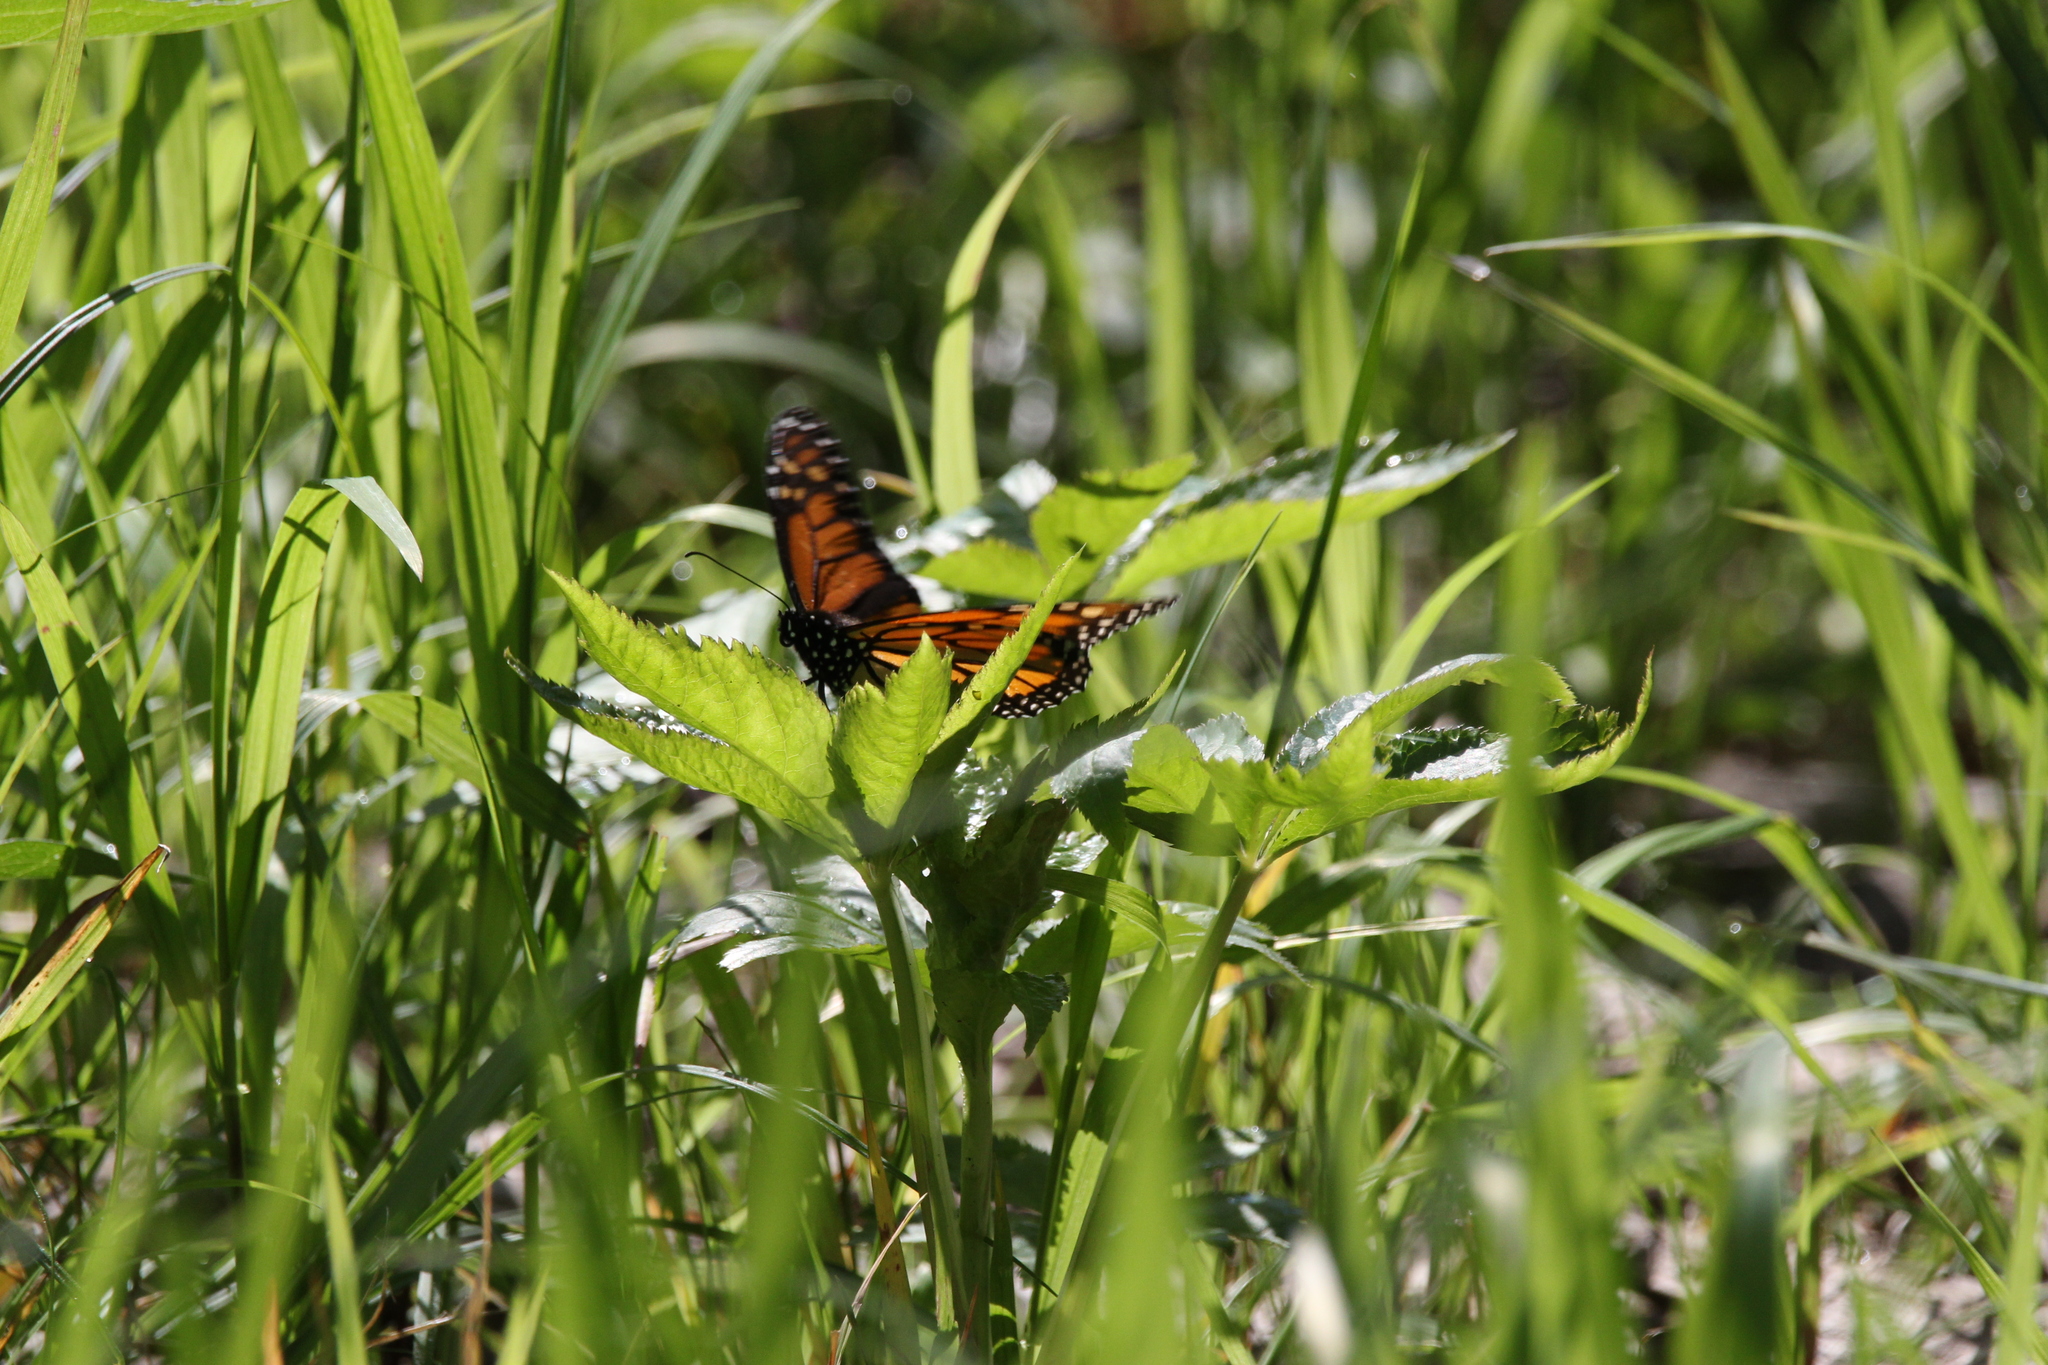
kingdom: Animalia
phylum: Arthropoda
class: Insecta
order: Lepidoptera
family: Nymphalidae
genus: Danaus
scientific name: Danaus plexippus
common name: Monarch
